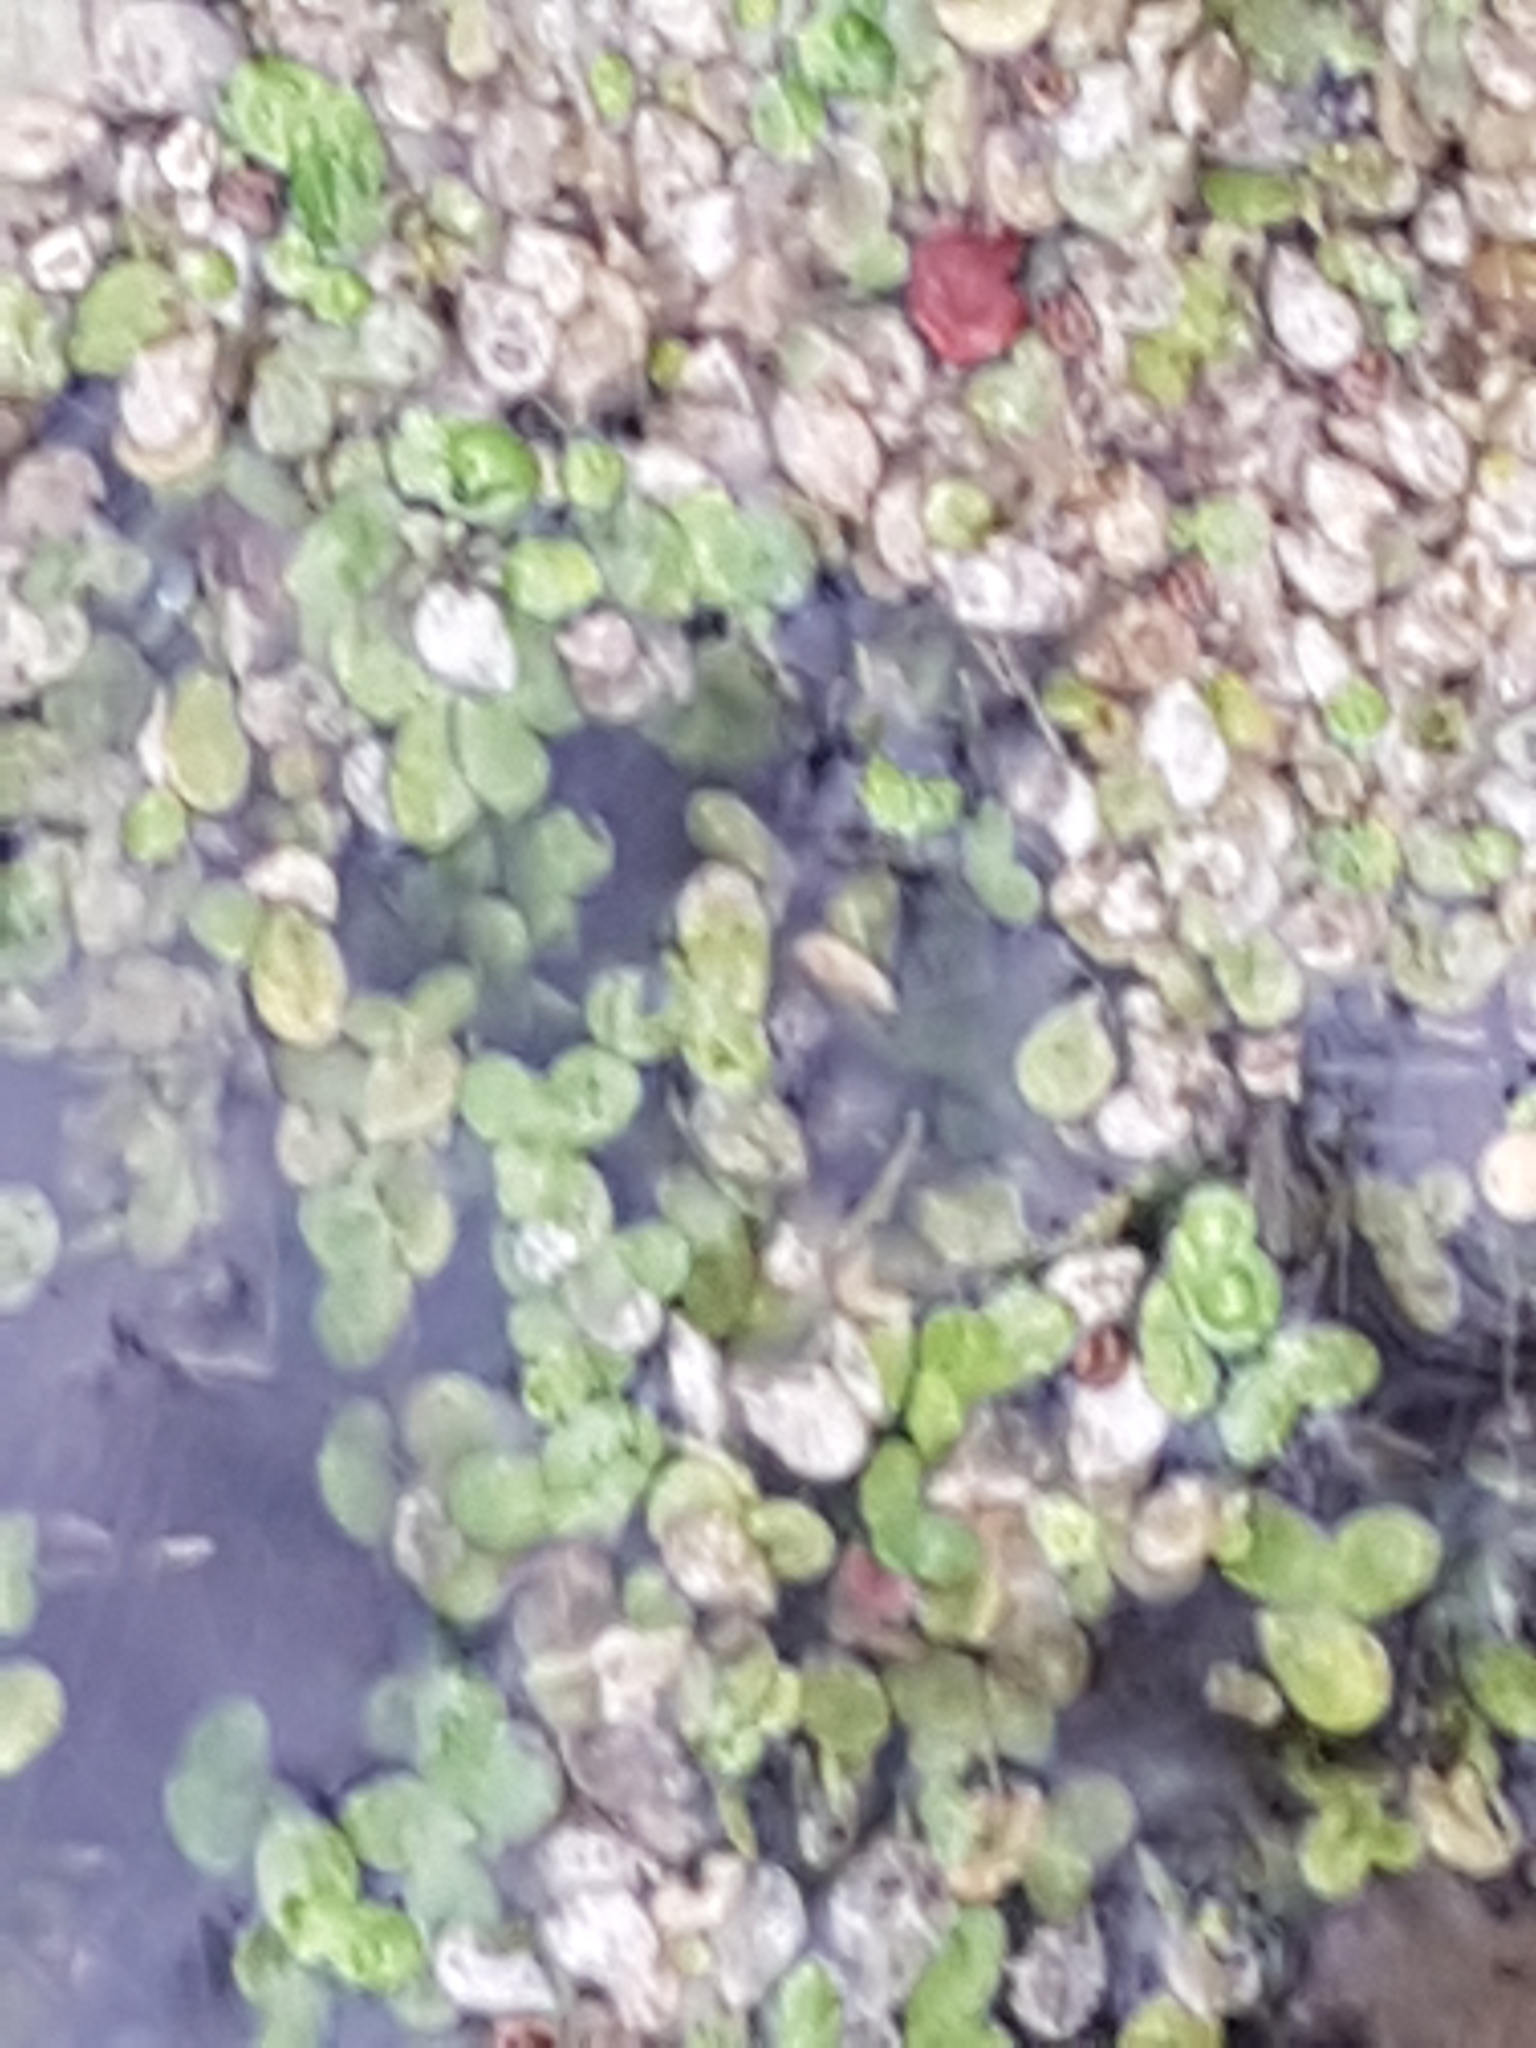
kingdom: Plantae
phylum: Tracheophyta
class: Liliopsida
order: Alismatales
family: Araceae
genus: Lemna
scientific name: Lemna minor
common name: Common duckweed
